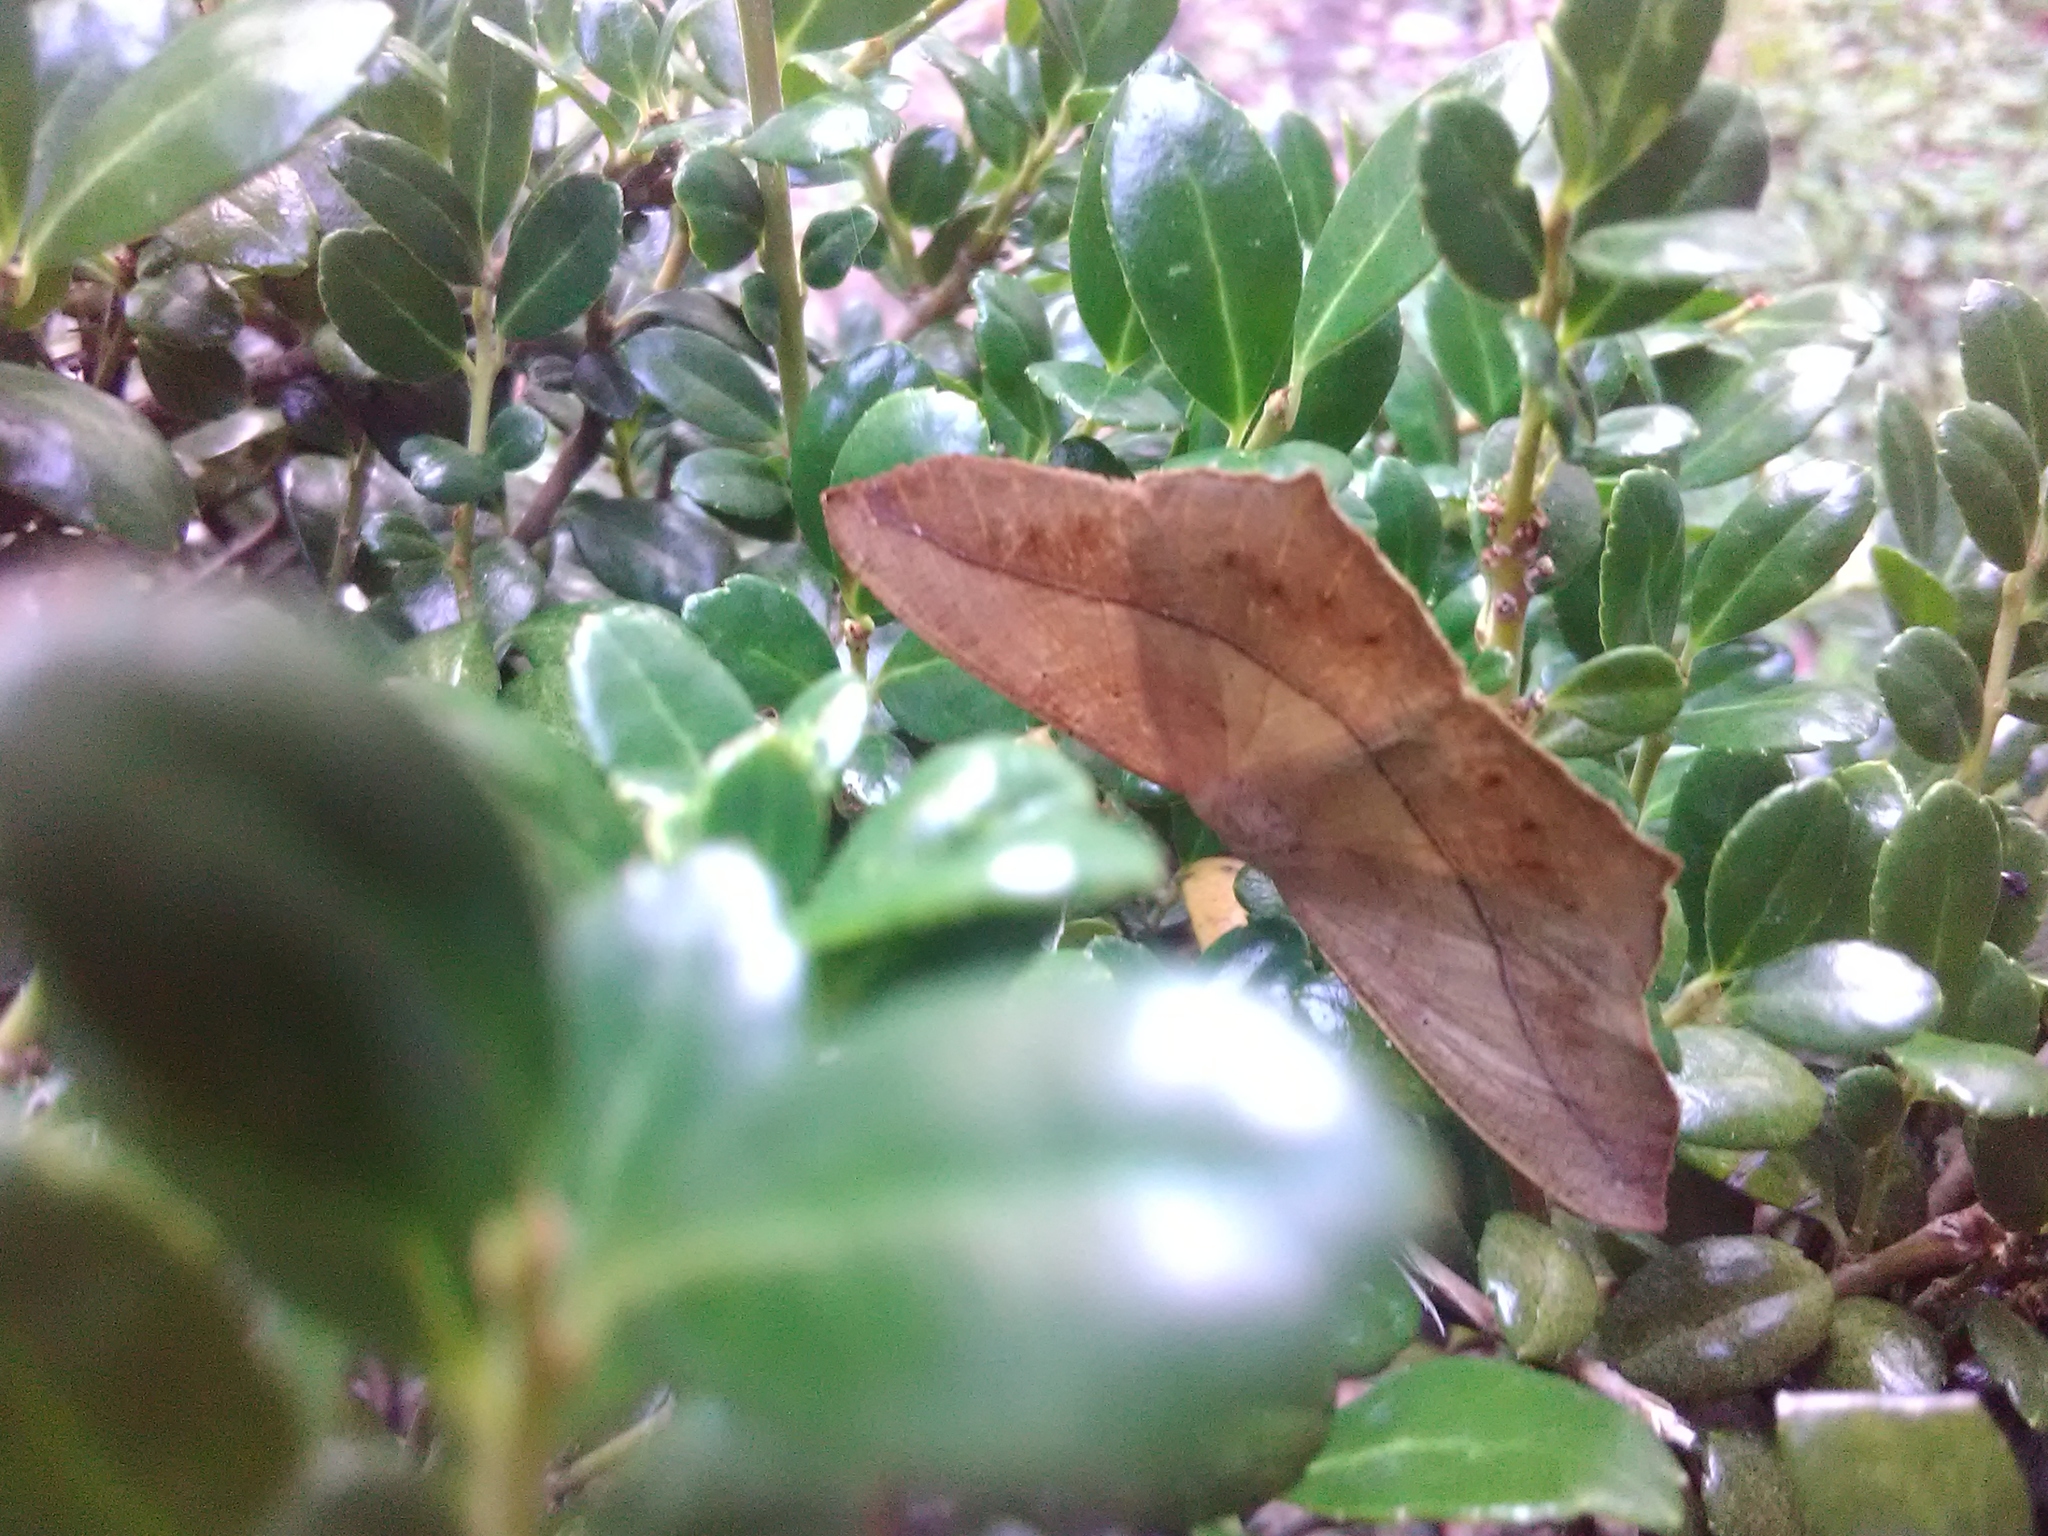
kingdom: Animalia
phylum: Arthropoda
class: Insecta
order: Lepidoptera
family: Geometridae
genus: Prochoerodes
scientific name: Prochoerodes lineola
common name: Large maple spanworm
